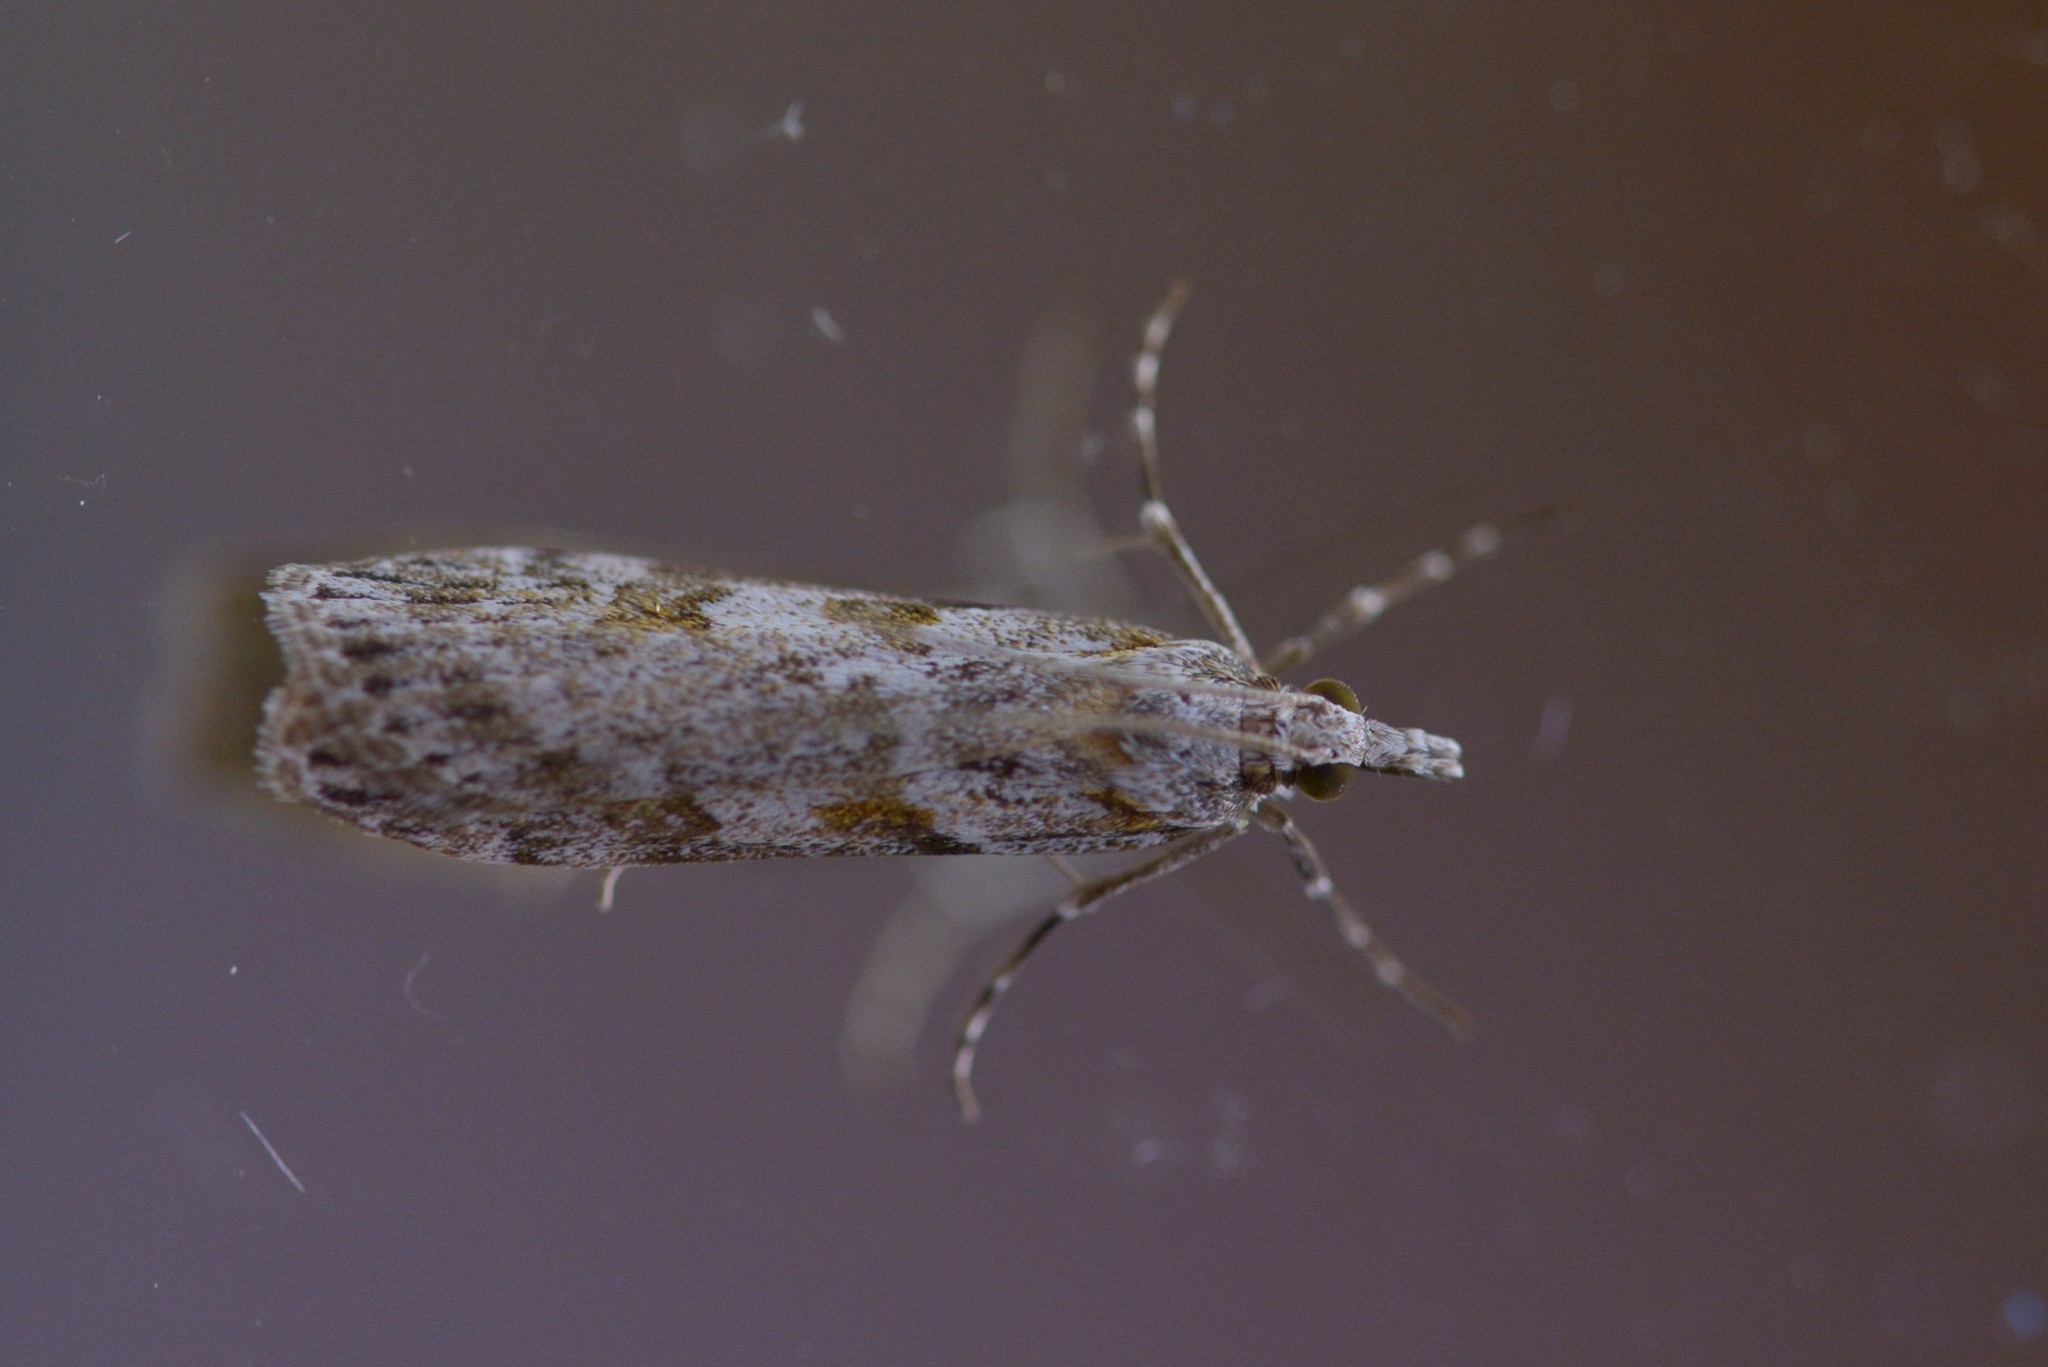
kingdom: Animalia
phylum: Arthropoda
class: Insecta
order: Lepidoptera
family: Crambidae
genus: Scoparia
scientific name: Scoparia halopis
